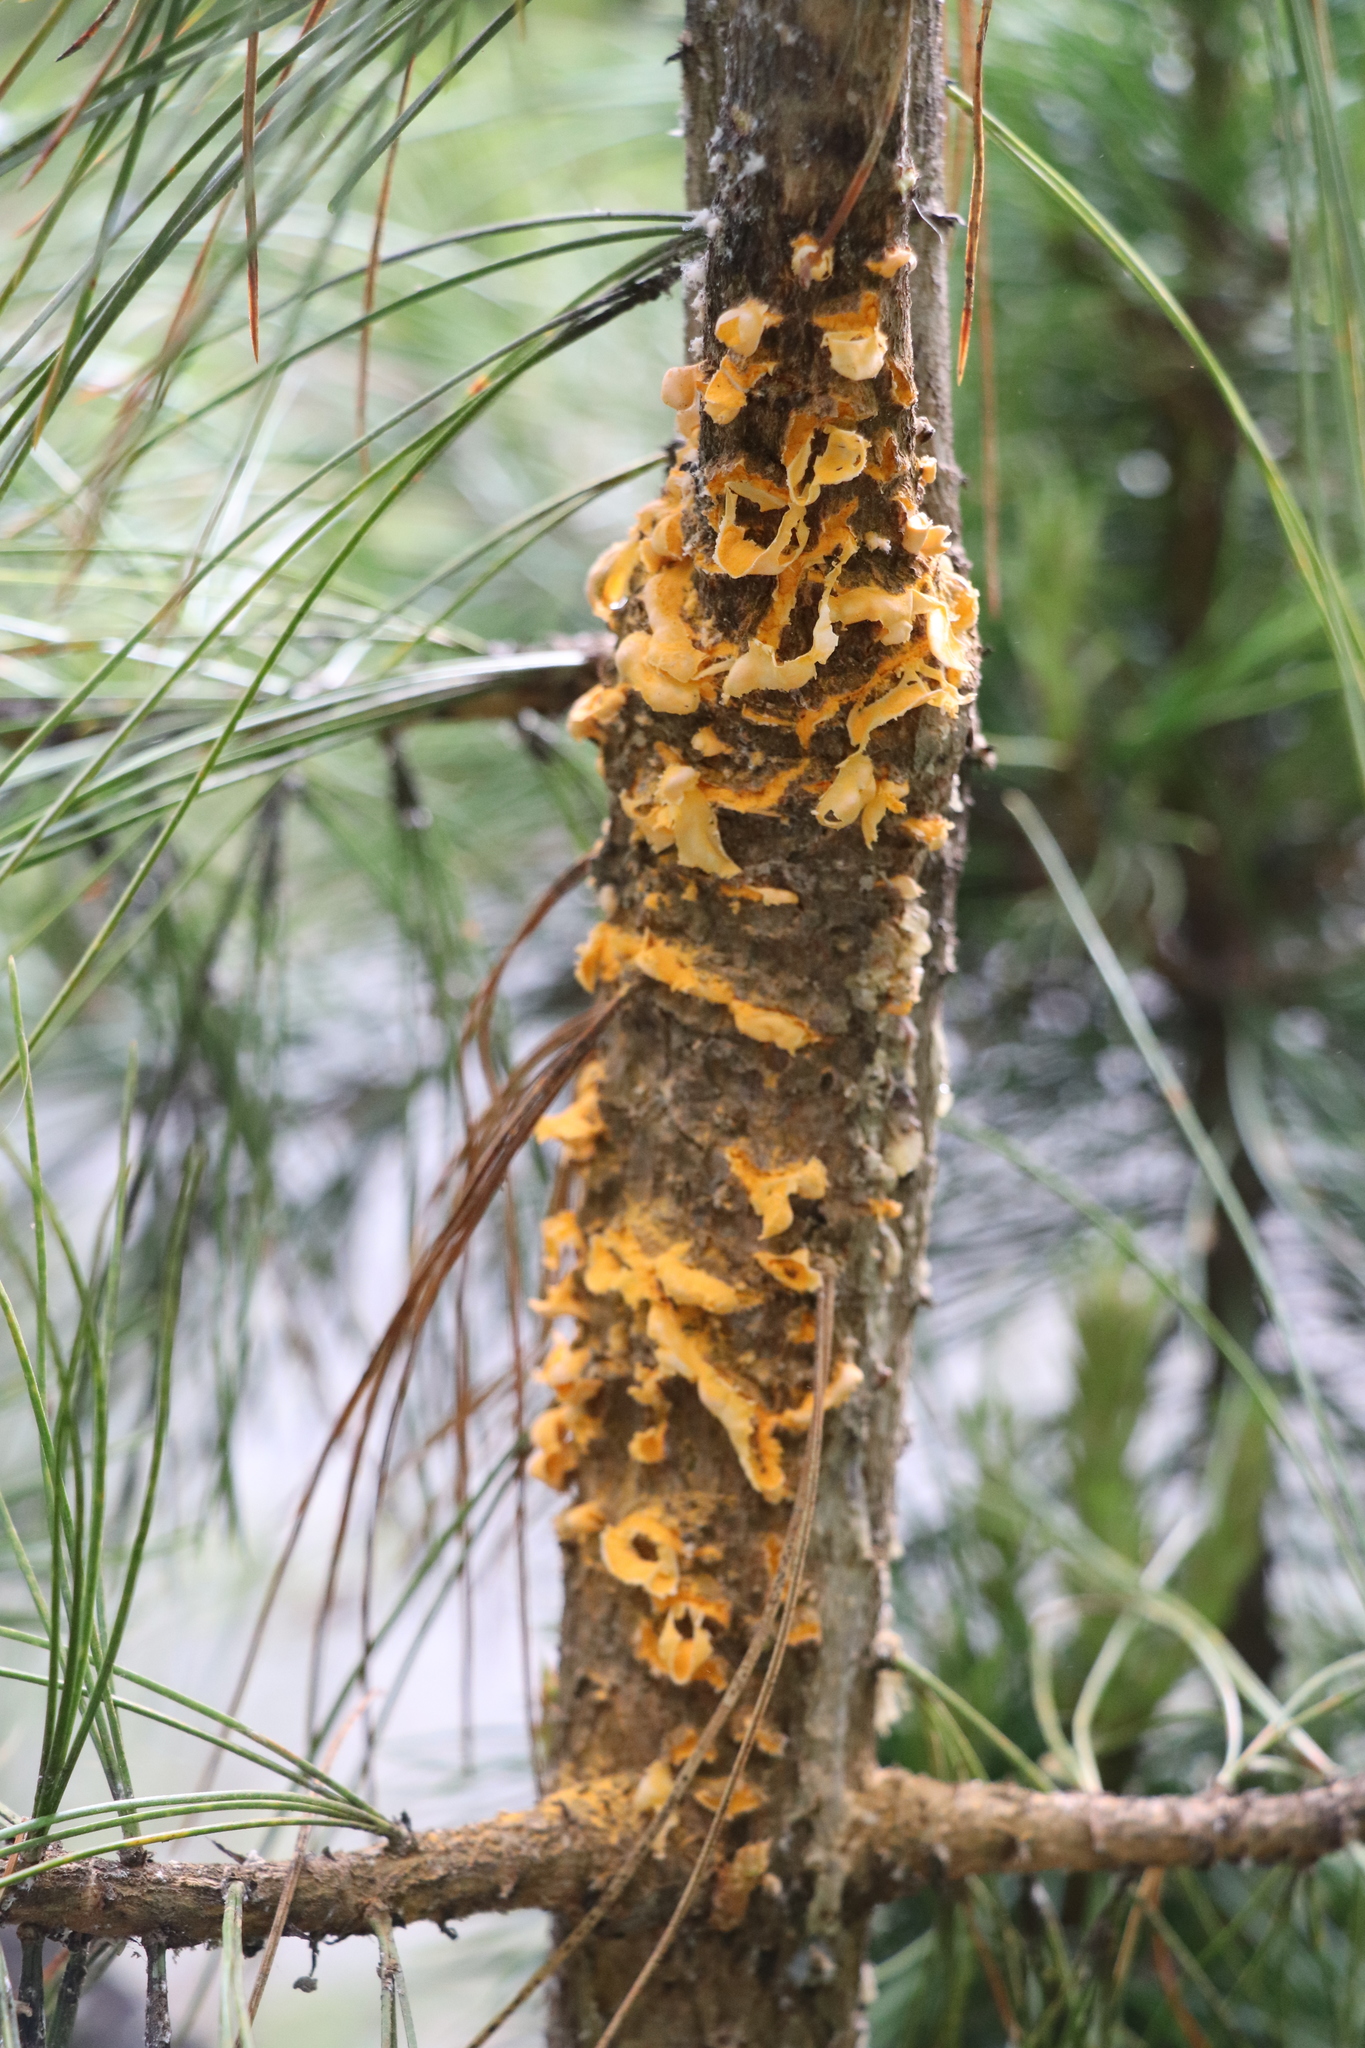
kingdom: Fungi
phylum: Basidiomycota
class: Pucciniomycetes
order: Pucciniales
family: Cronartiaceae
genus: Cronartium
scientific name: Cronartium ribicola
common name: White pine blister rust
